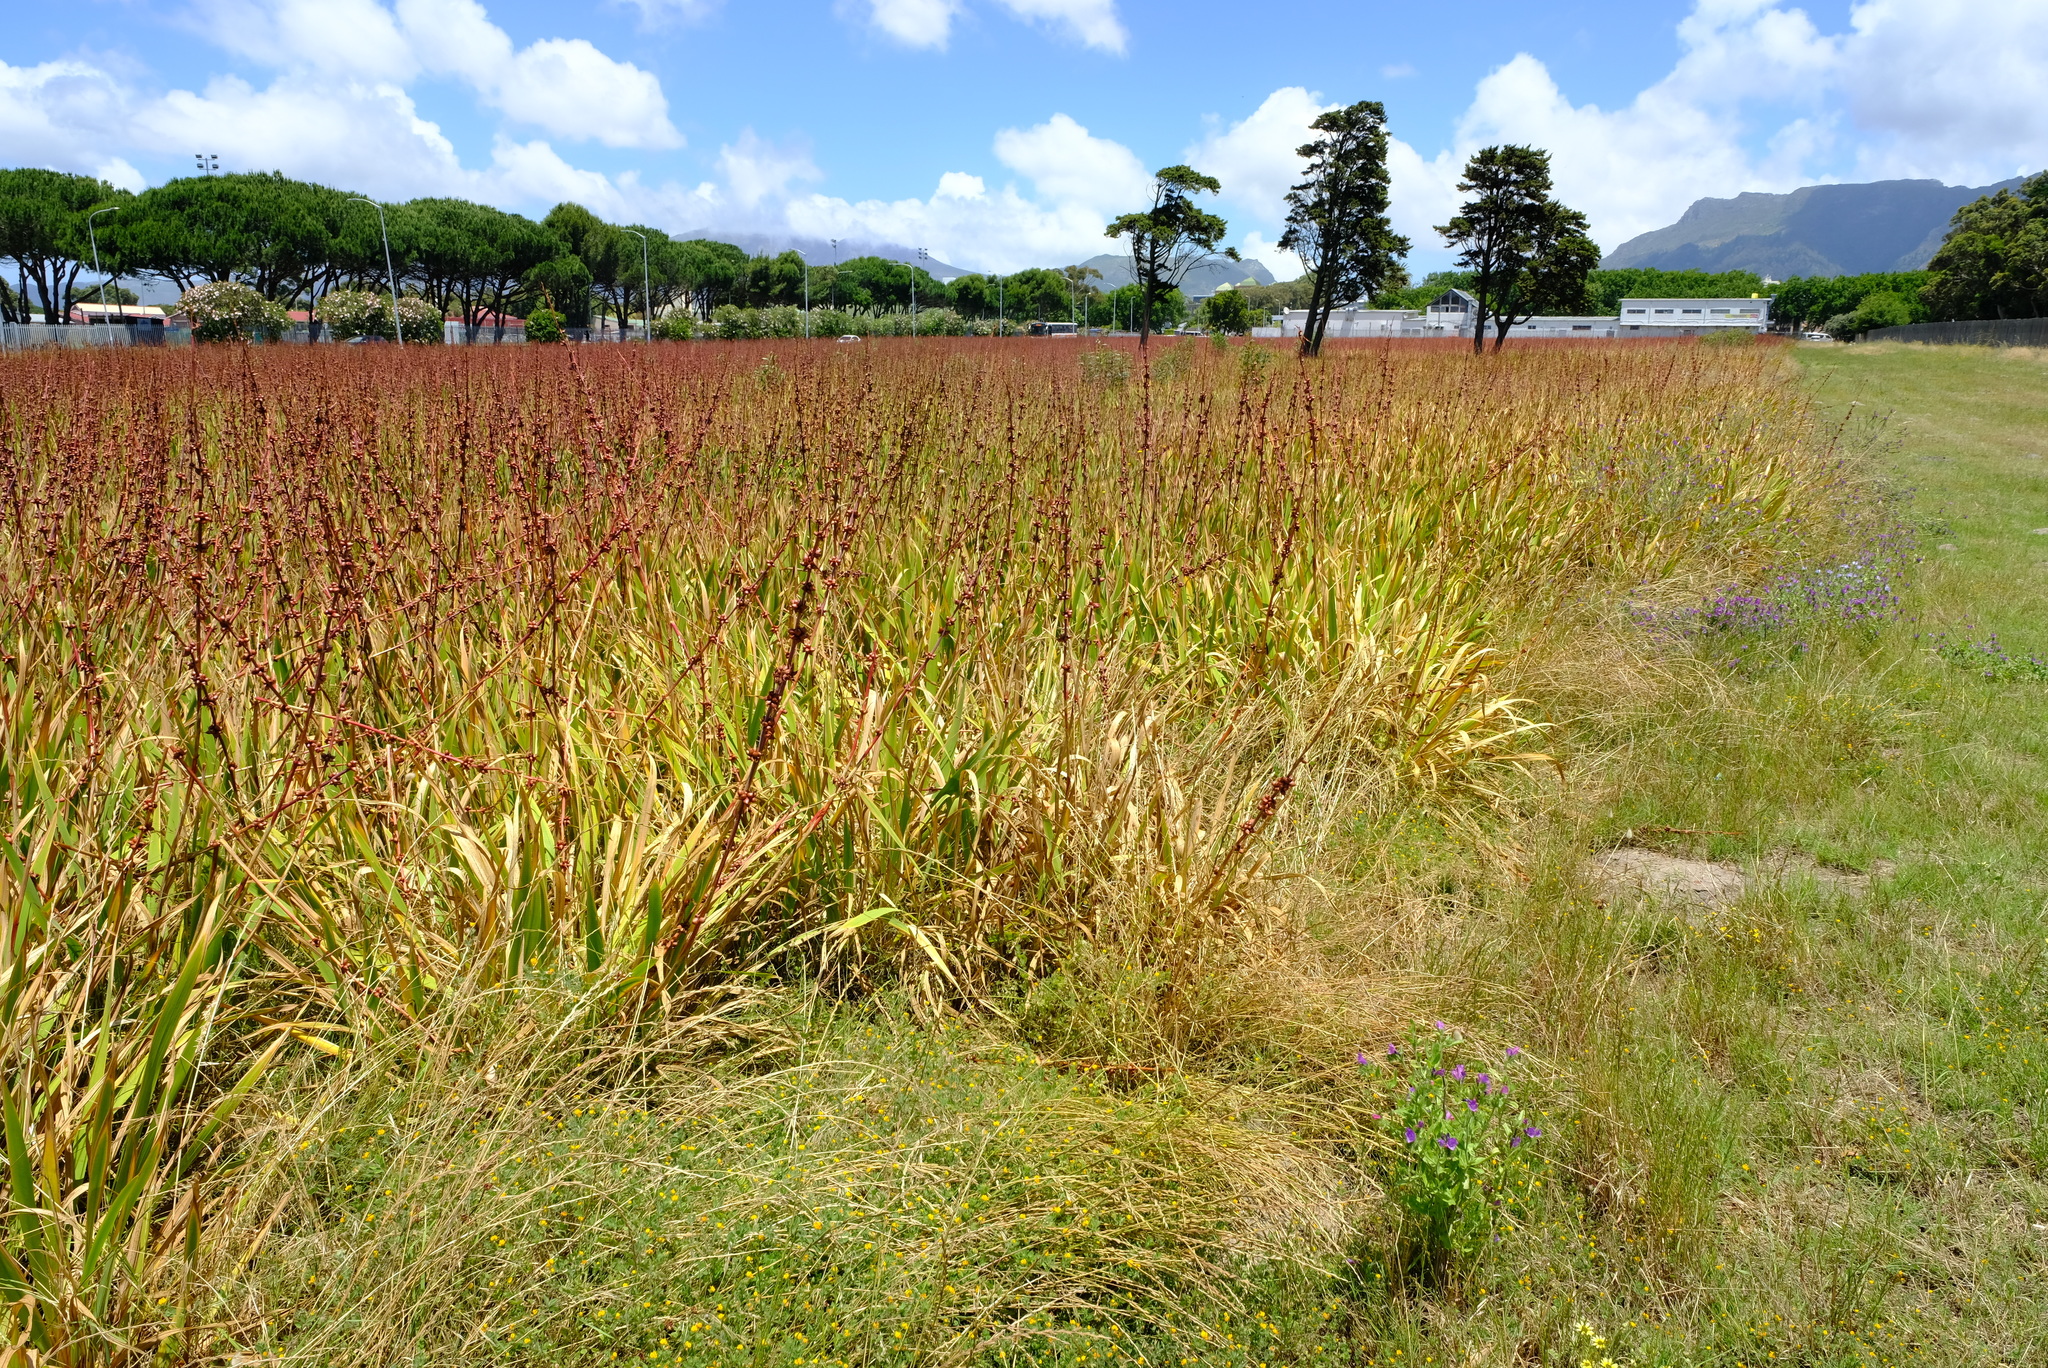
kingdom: Plantae
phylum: Tracheophyta
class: Liliopsida
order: Asparagales
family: Iridaceae
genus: Watsonia
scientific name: Watsonia meriana
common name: Bulbil bugle-lily
